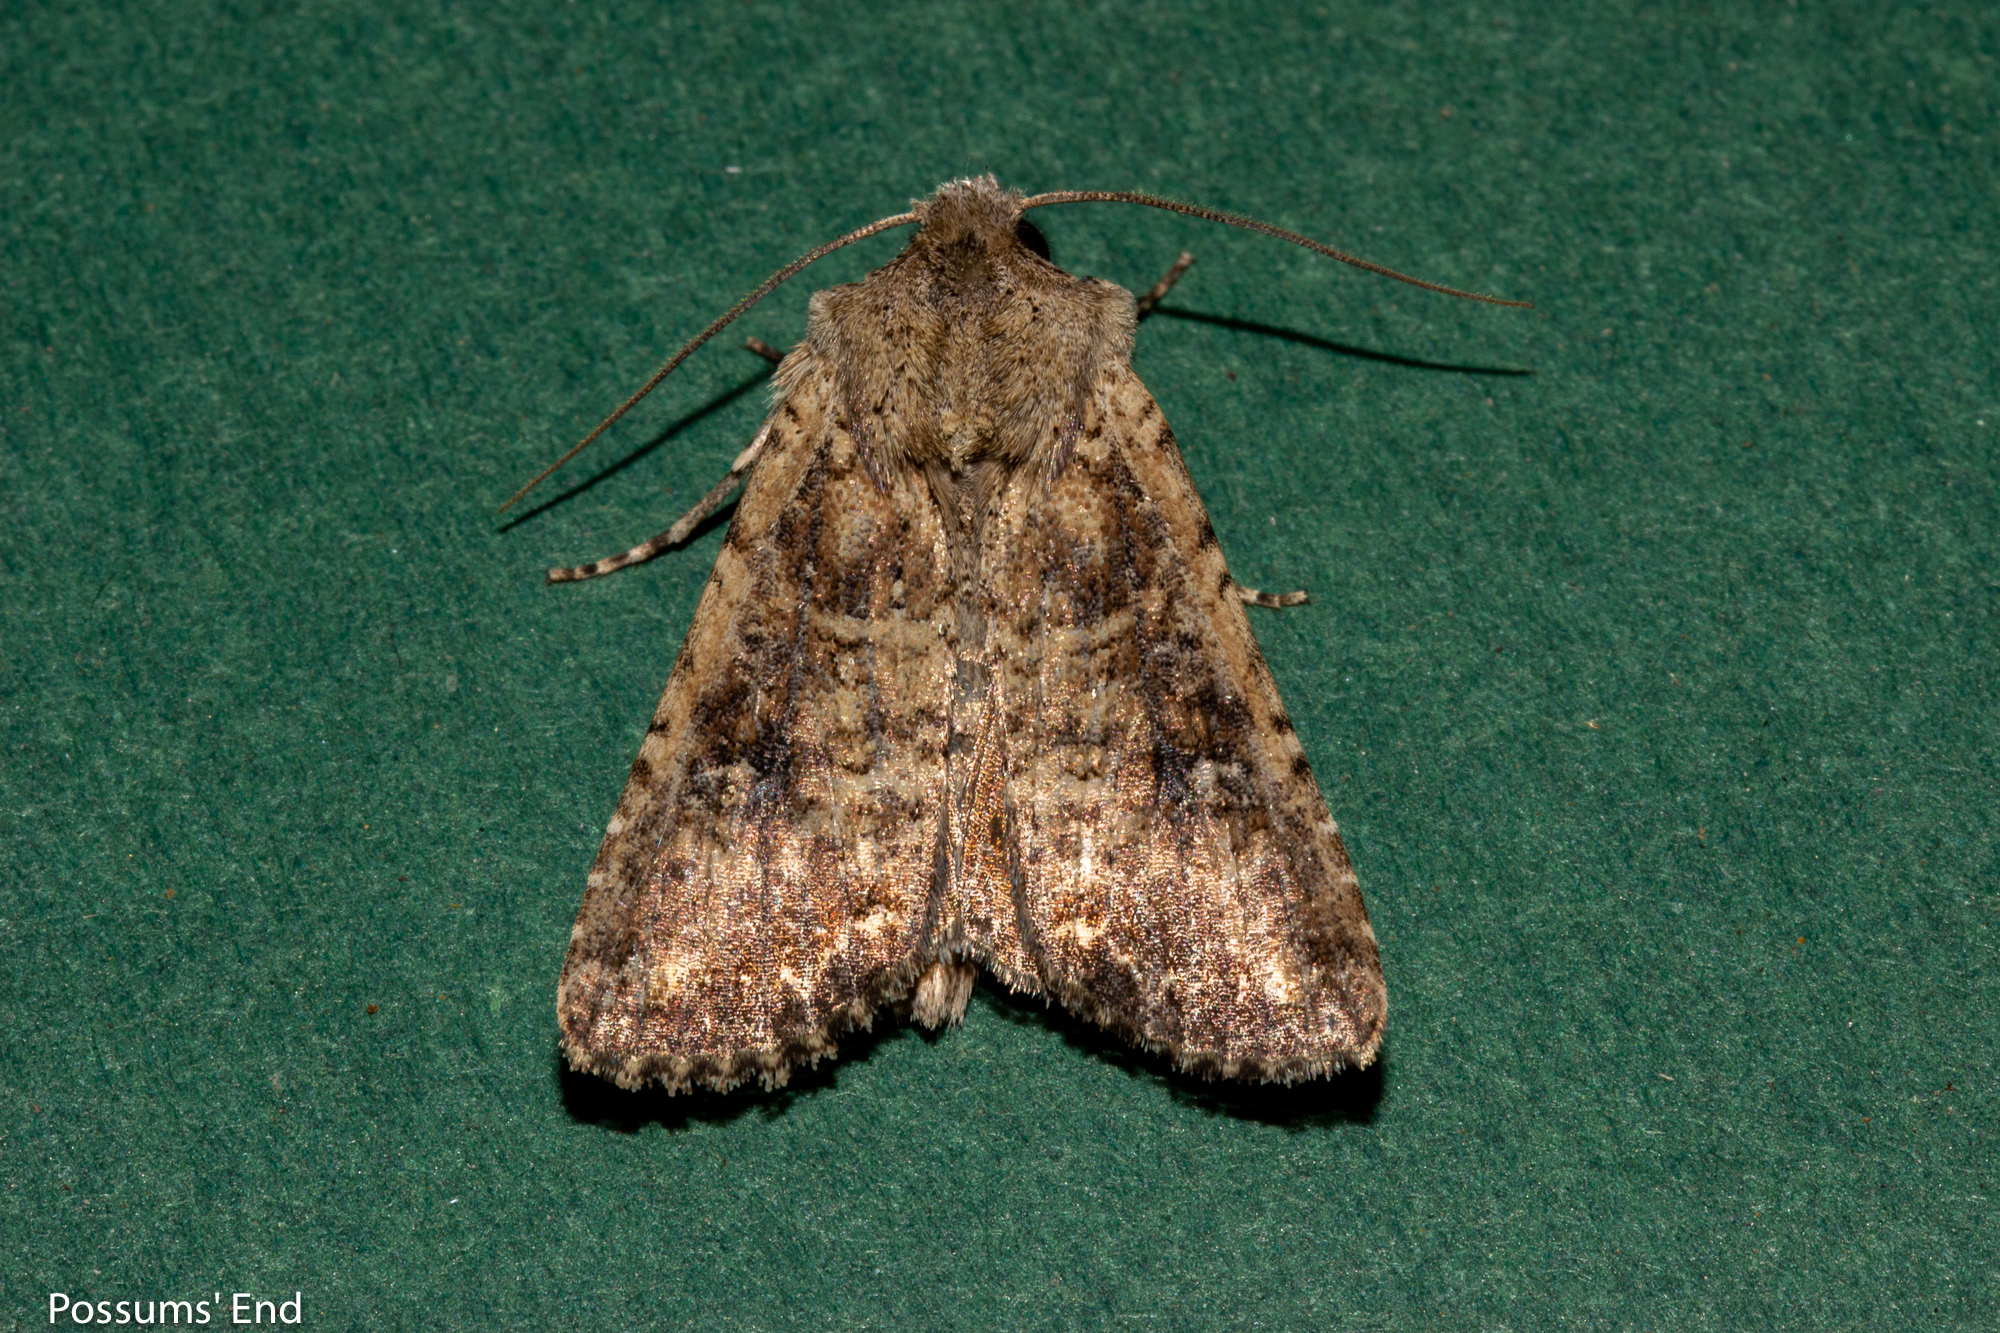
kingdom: Animalia
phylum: Arthropoda
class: Insecta
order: Lepidoptera
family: Noctuidae
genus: Ichneutica
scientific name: Ichneutica morosa
